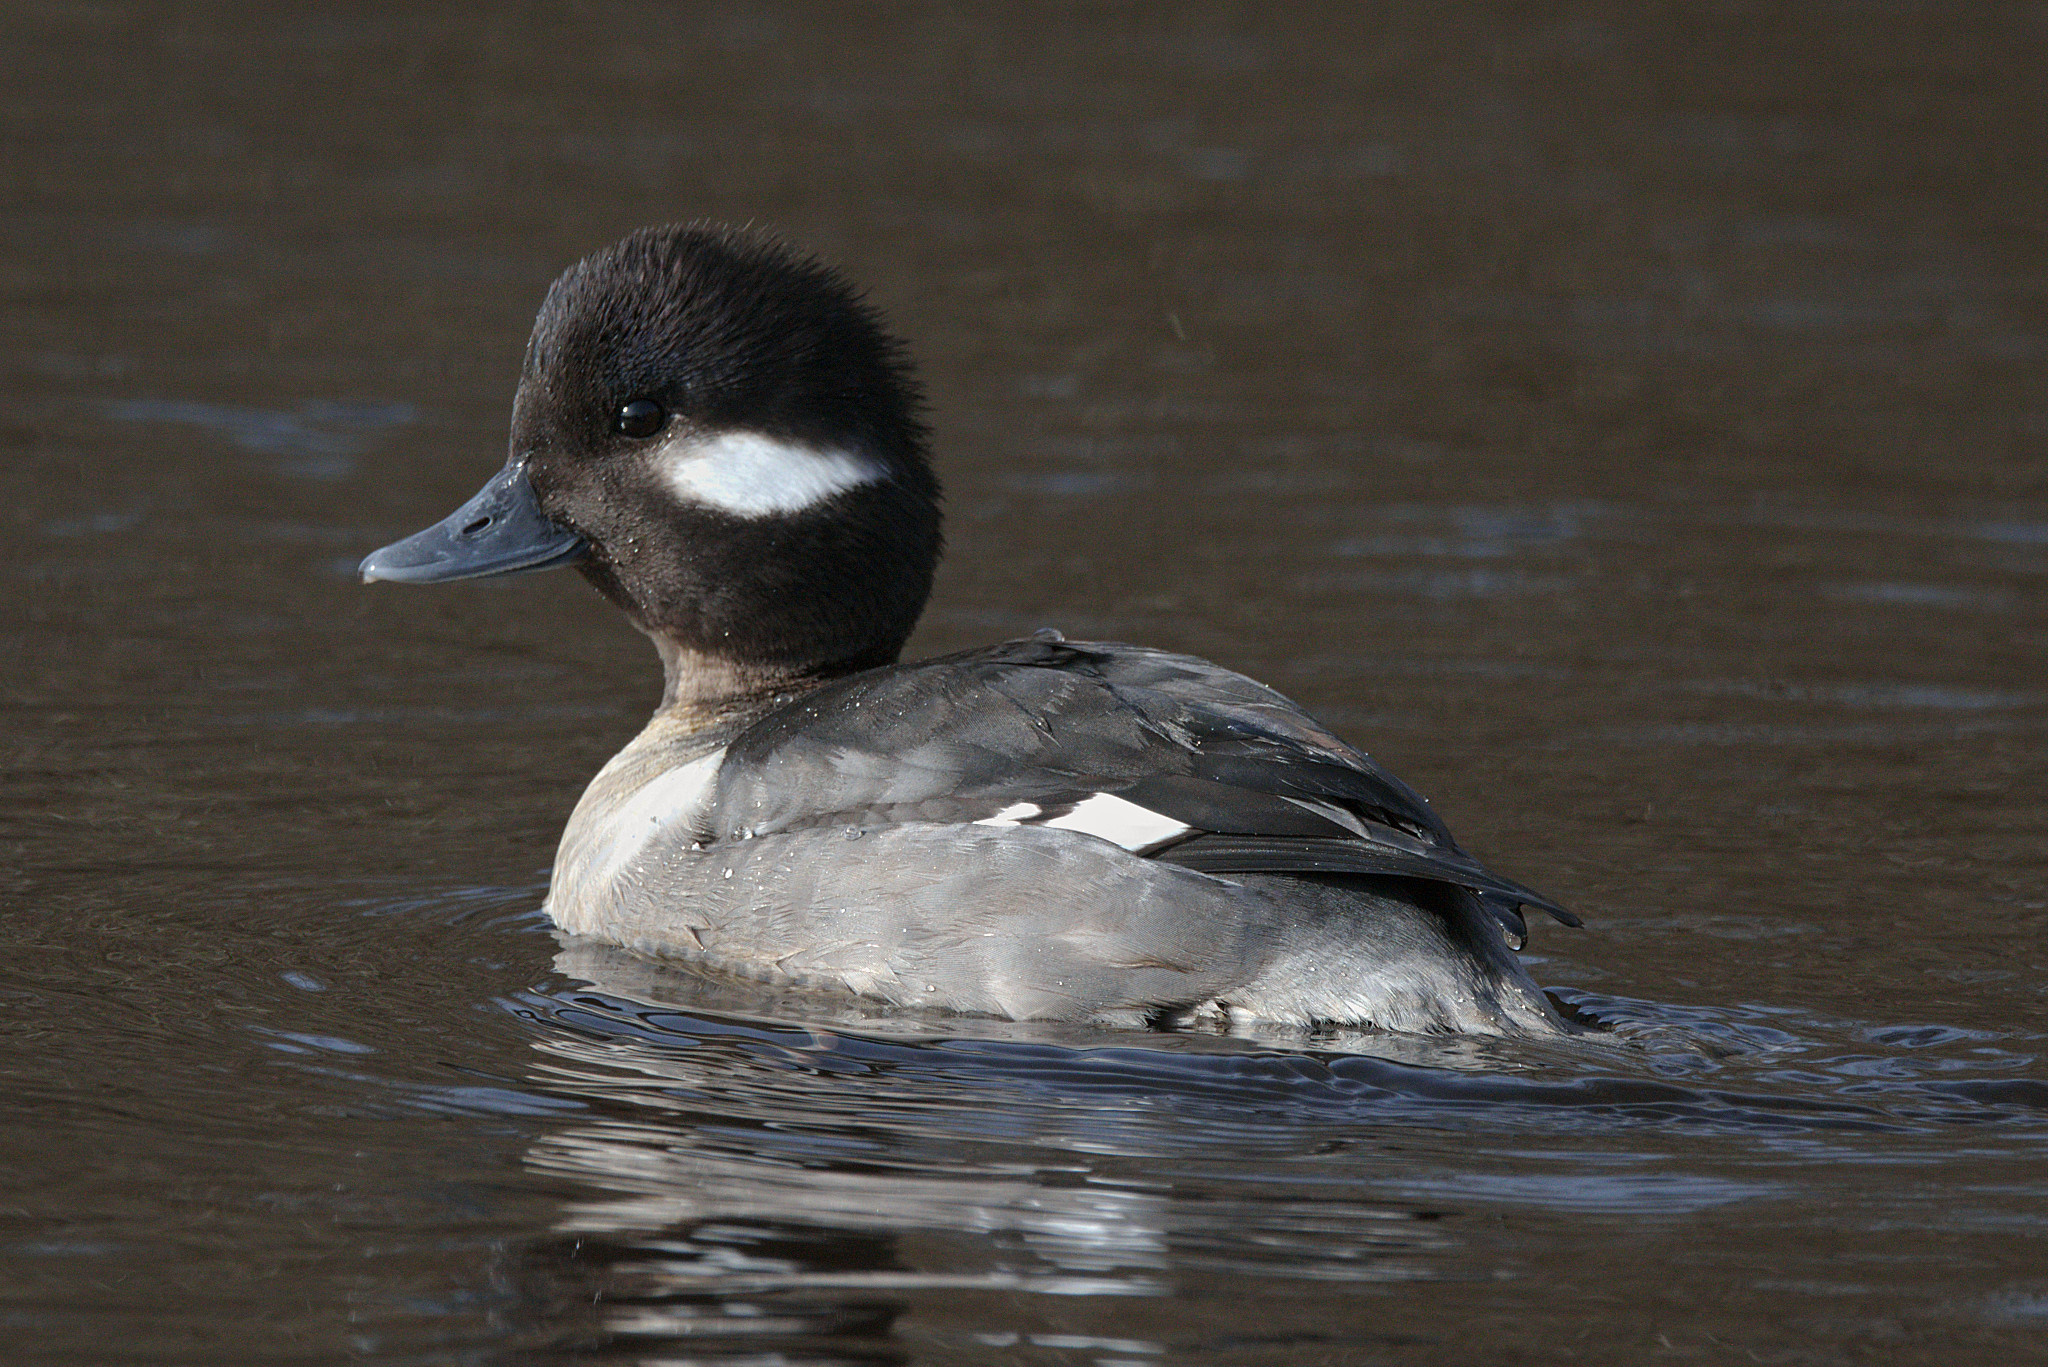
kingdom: Animalia
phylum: Chordata
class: Aves
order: Anseriformes
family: Anatidae
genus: Bucephala
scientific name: Bucephala albeola
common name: Bufflehead
